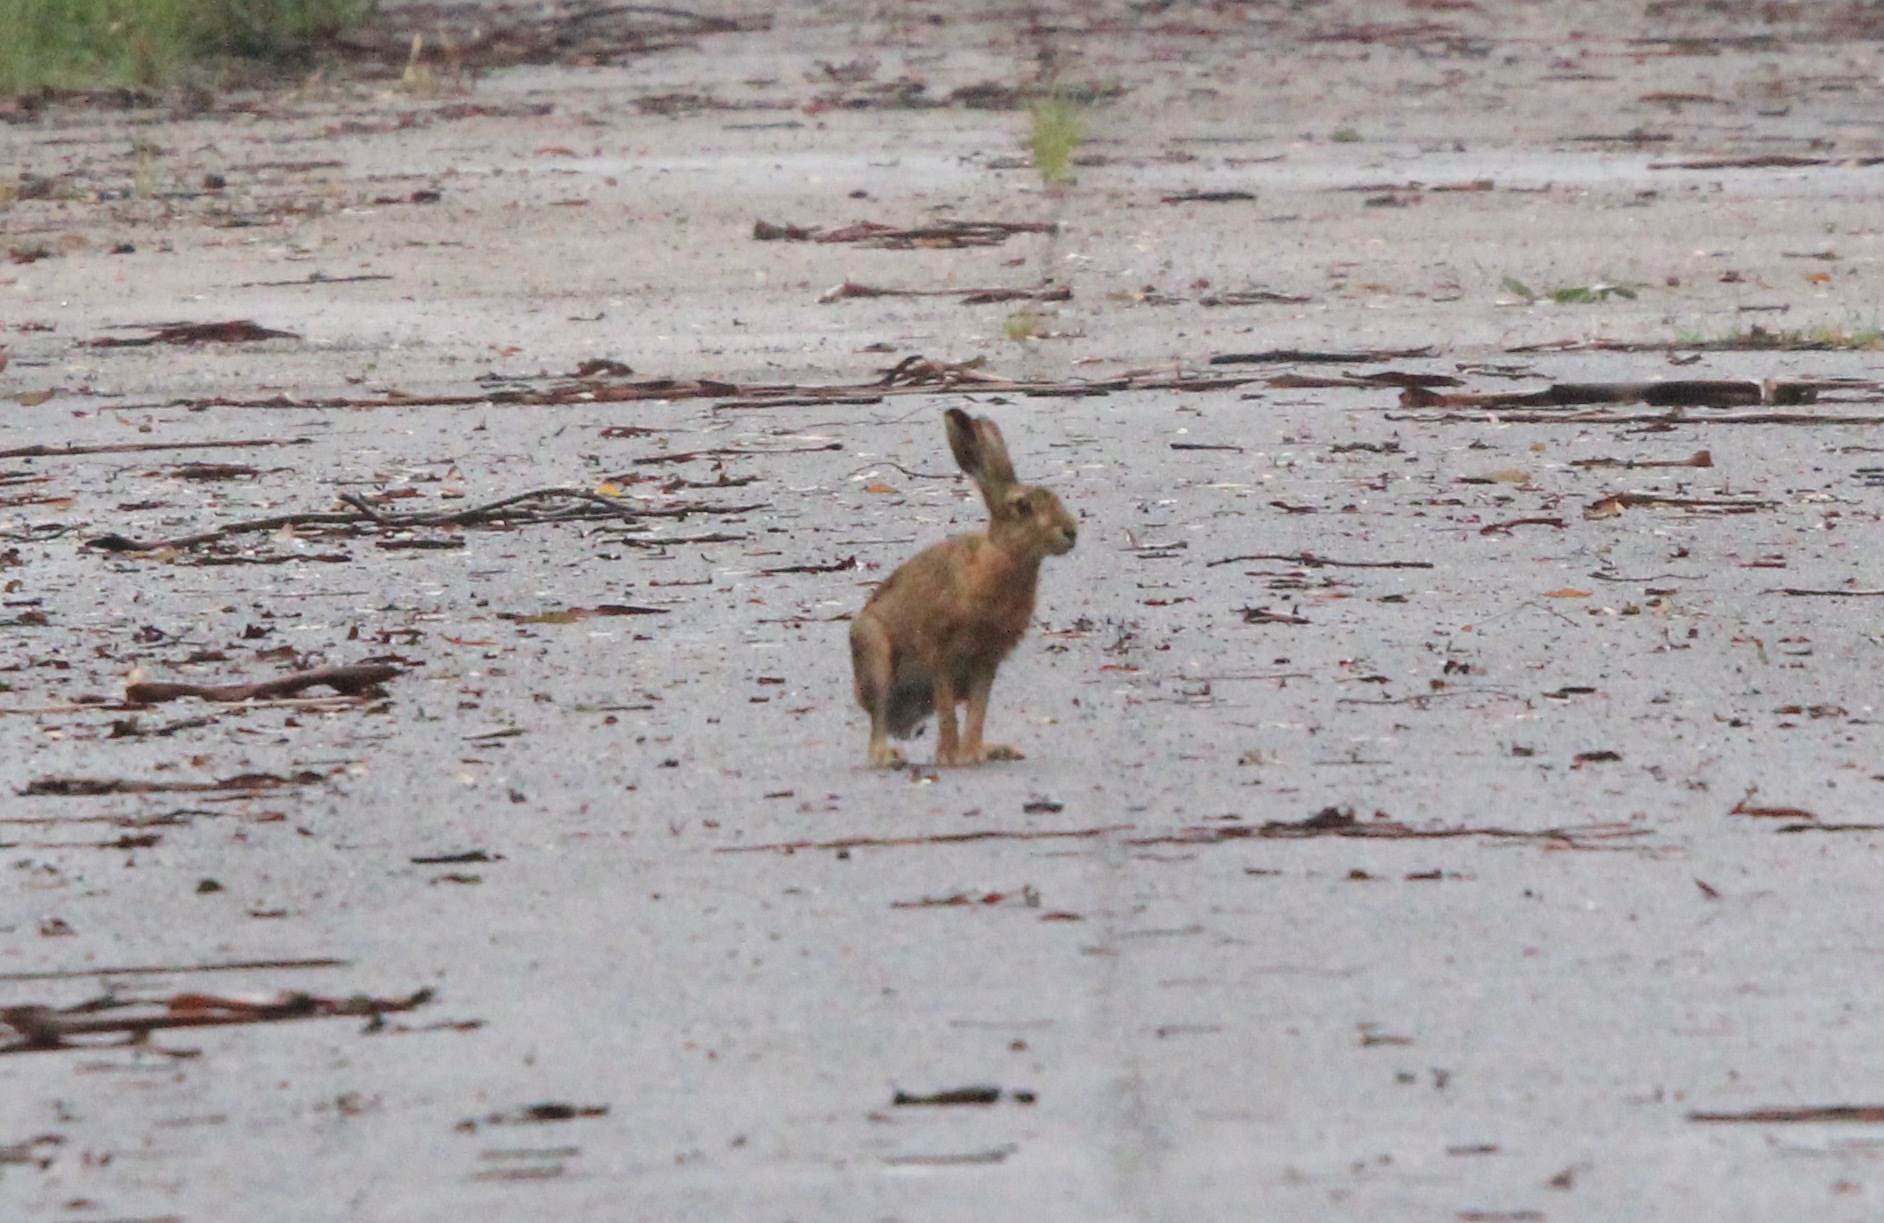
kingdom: Animalia
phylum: Chordata
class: Mammalia
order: Lagomorpha
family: Leporidae
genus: Lepus
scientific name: Lepus europaeus
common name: European hare
